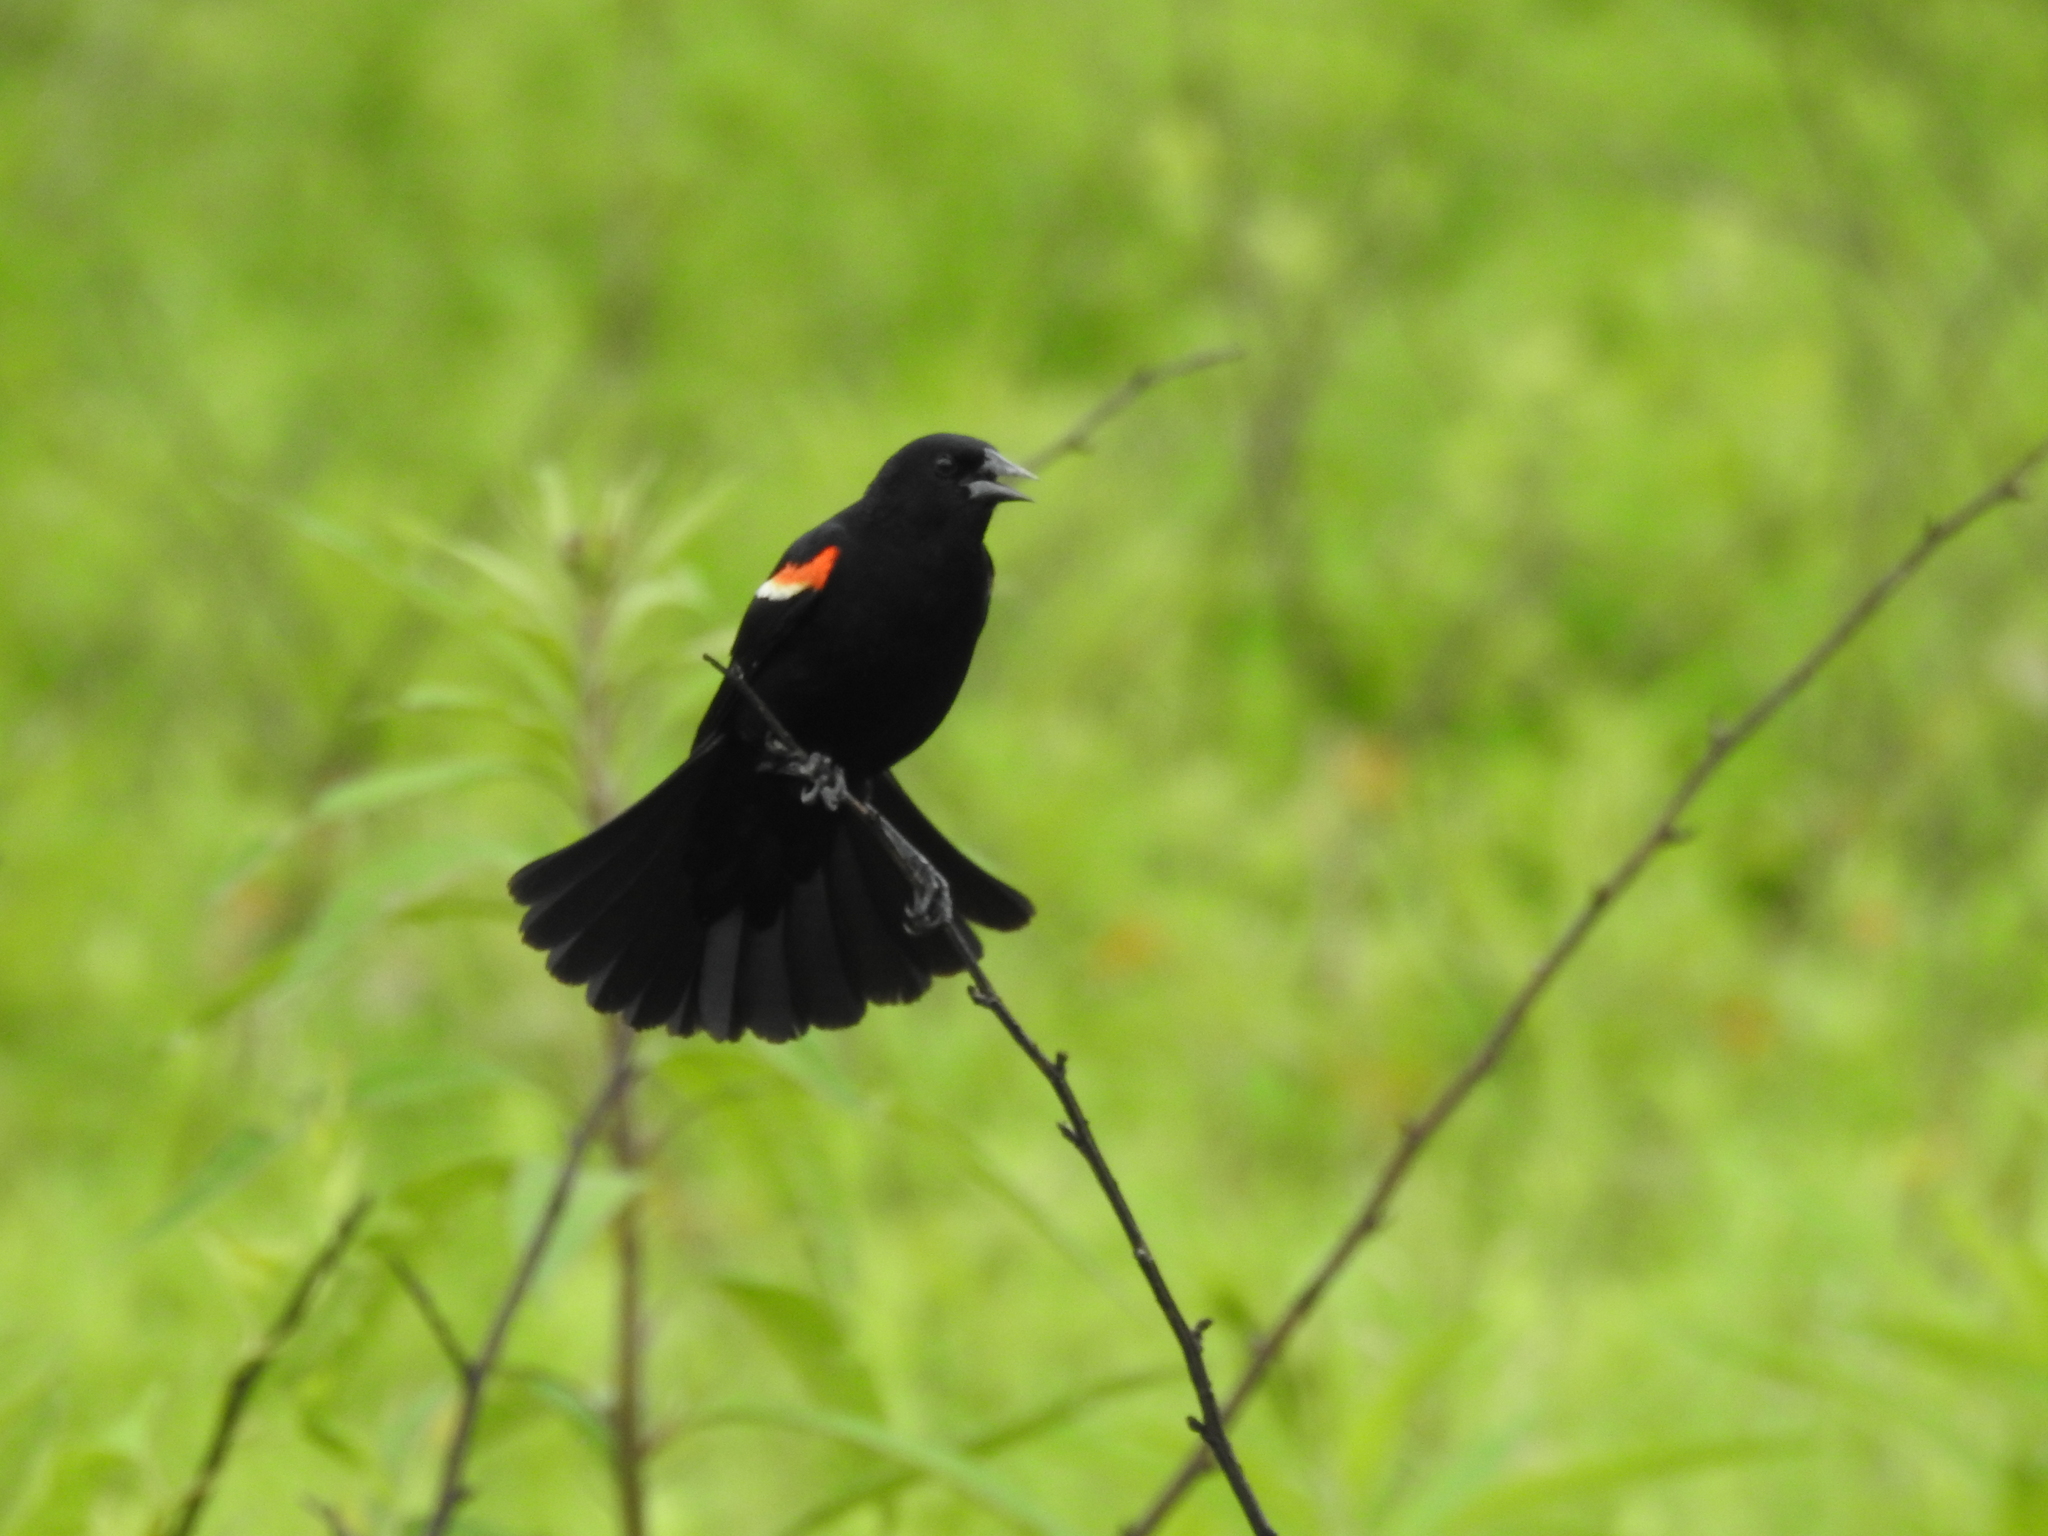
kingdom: Animalia
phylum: Chordata
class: Aves
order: Passeriformes
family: Icteridae
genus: Agelaius
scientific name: Agelaius phoeniceus
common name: Red-winged blackbird
